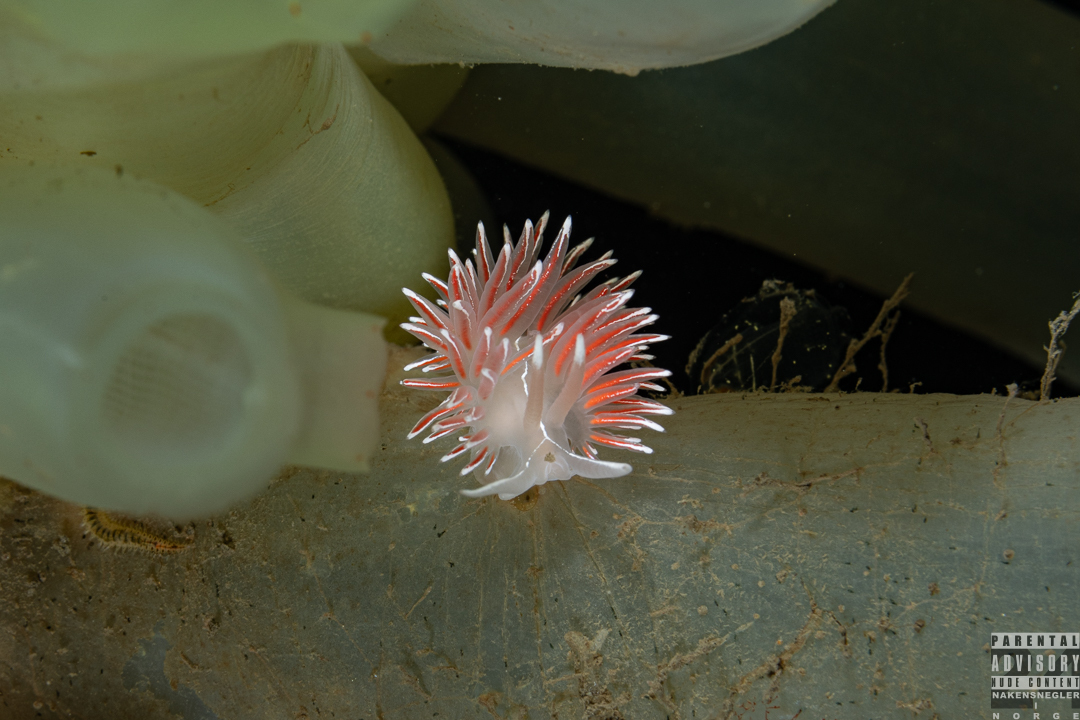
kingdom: Animalia
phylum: Mollusca
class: Gastropoda
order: Nudibranchia
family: Coryphellidae
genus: Coryphella
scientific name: Coryphella lineata
